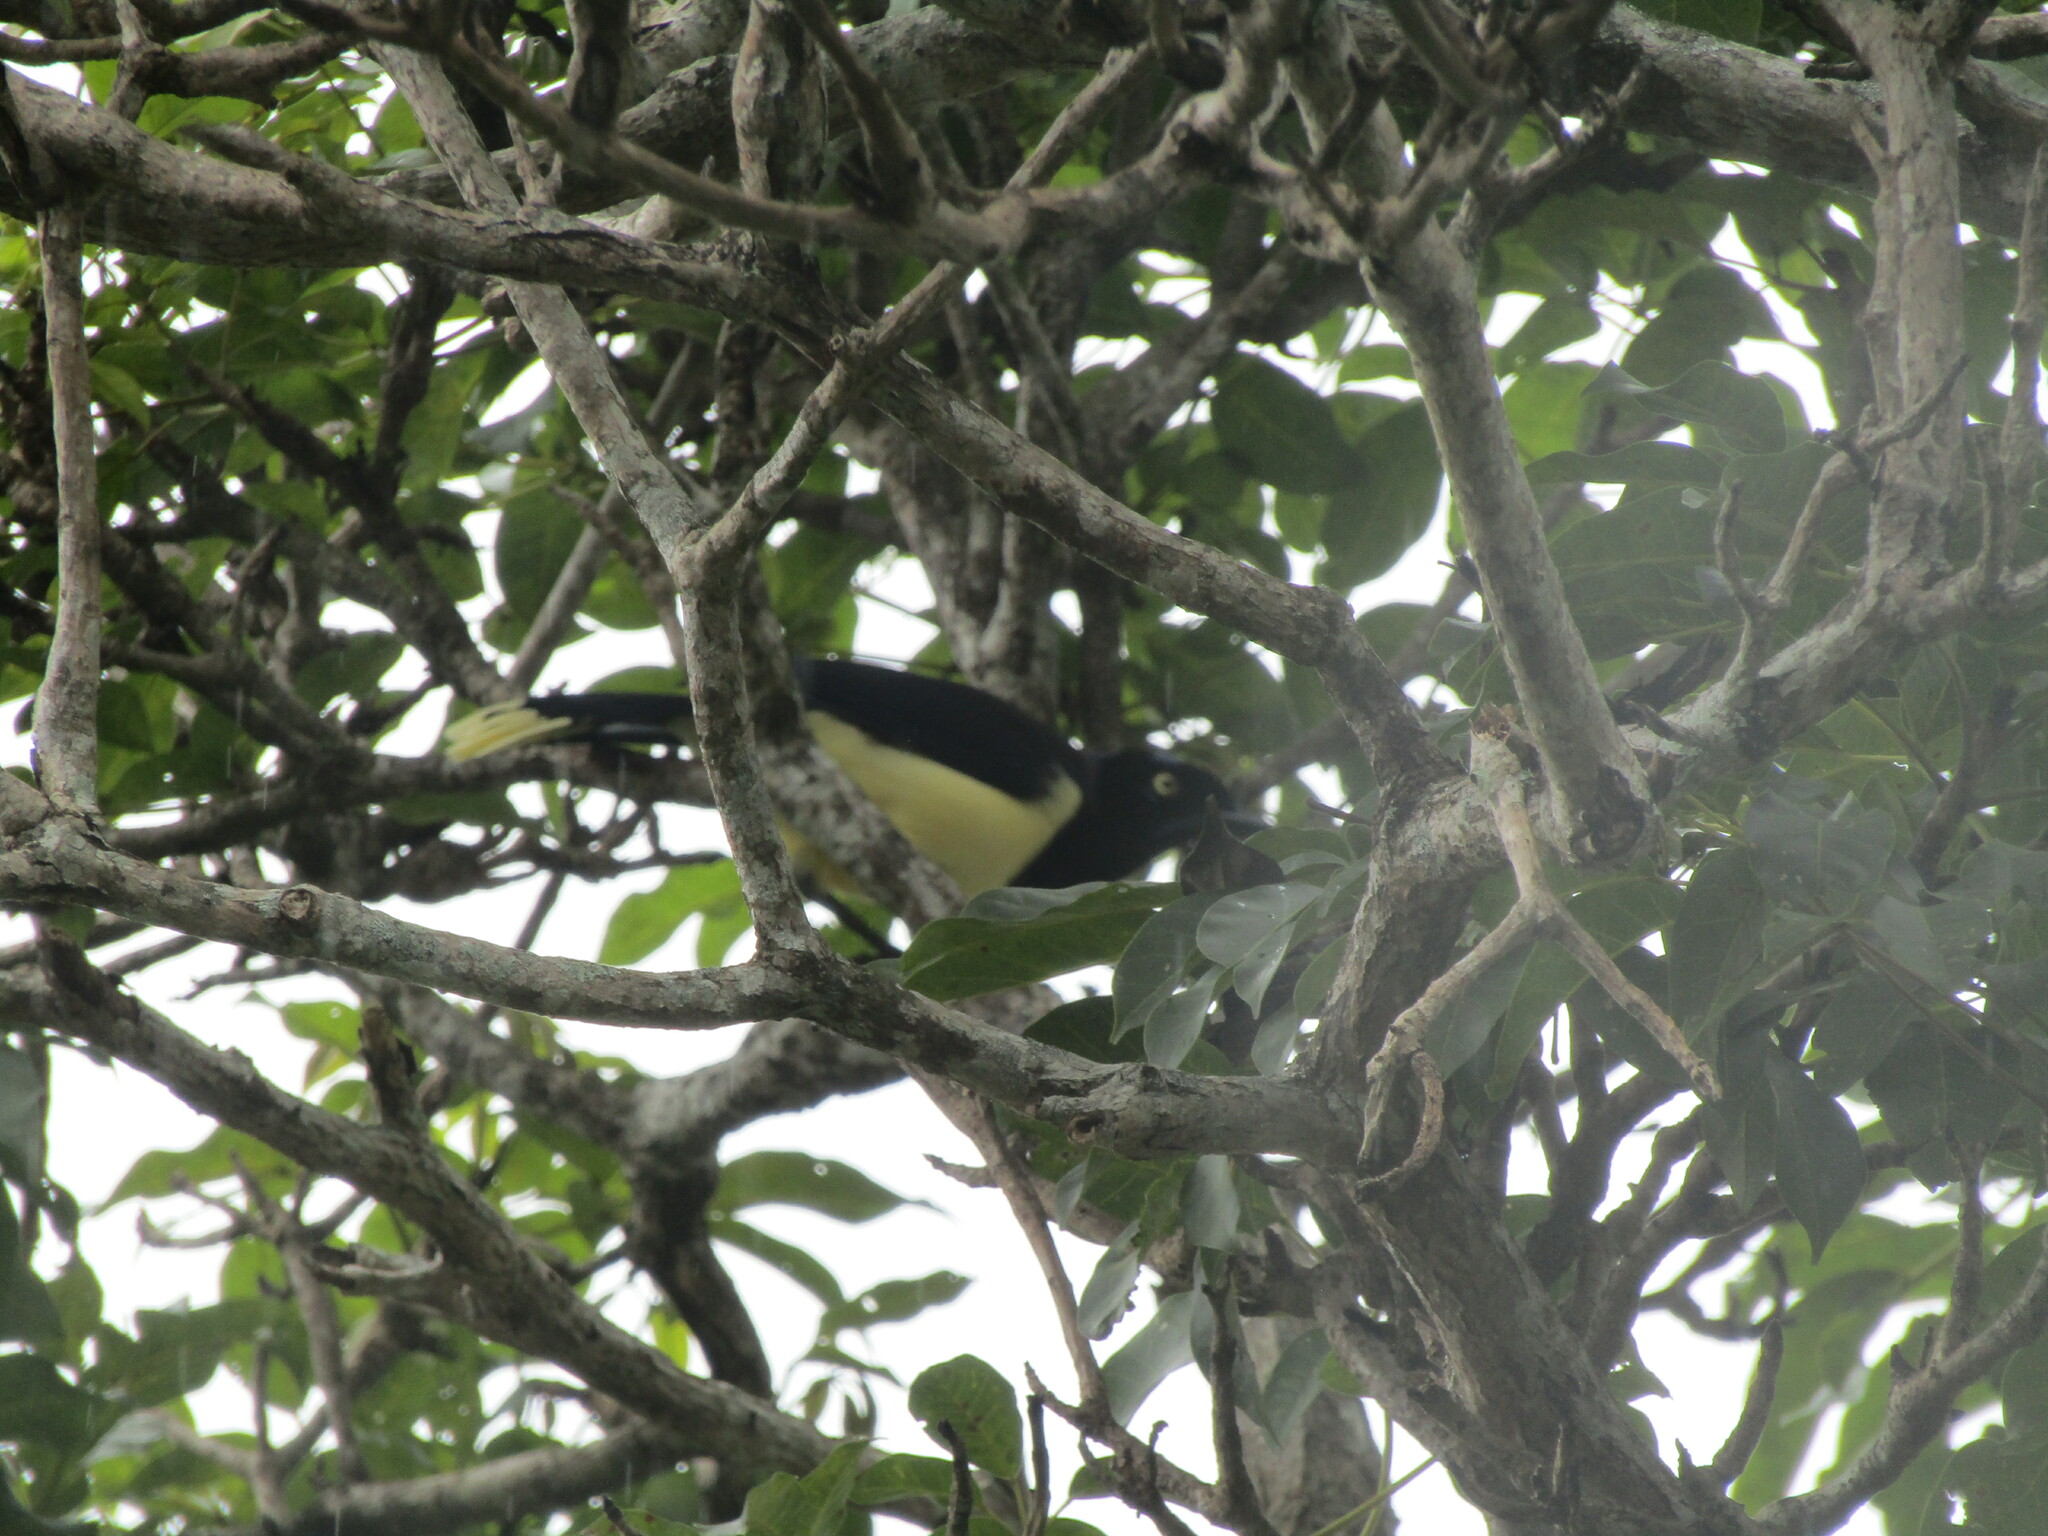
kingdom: Animalia
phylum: Chordata
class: Aves
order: Passeriformes
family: Corvidae
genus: Cyanocorax
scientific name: Cyanocorax affinis
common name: Black-chested jay
